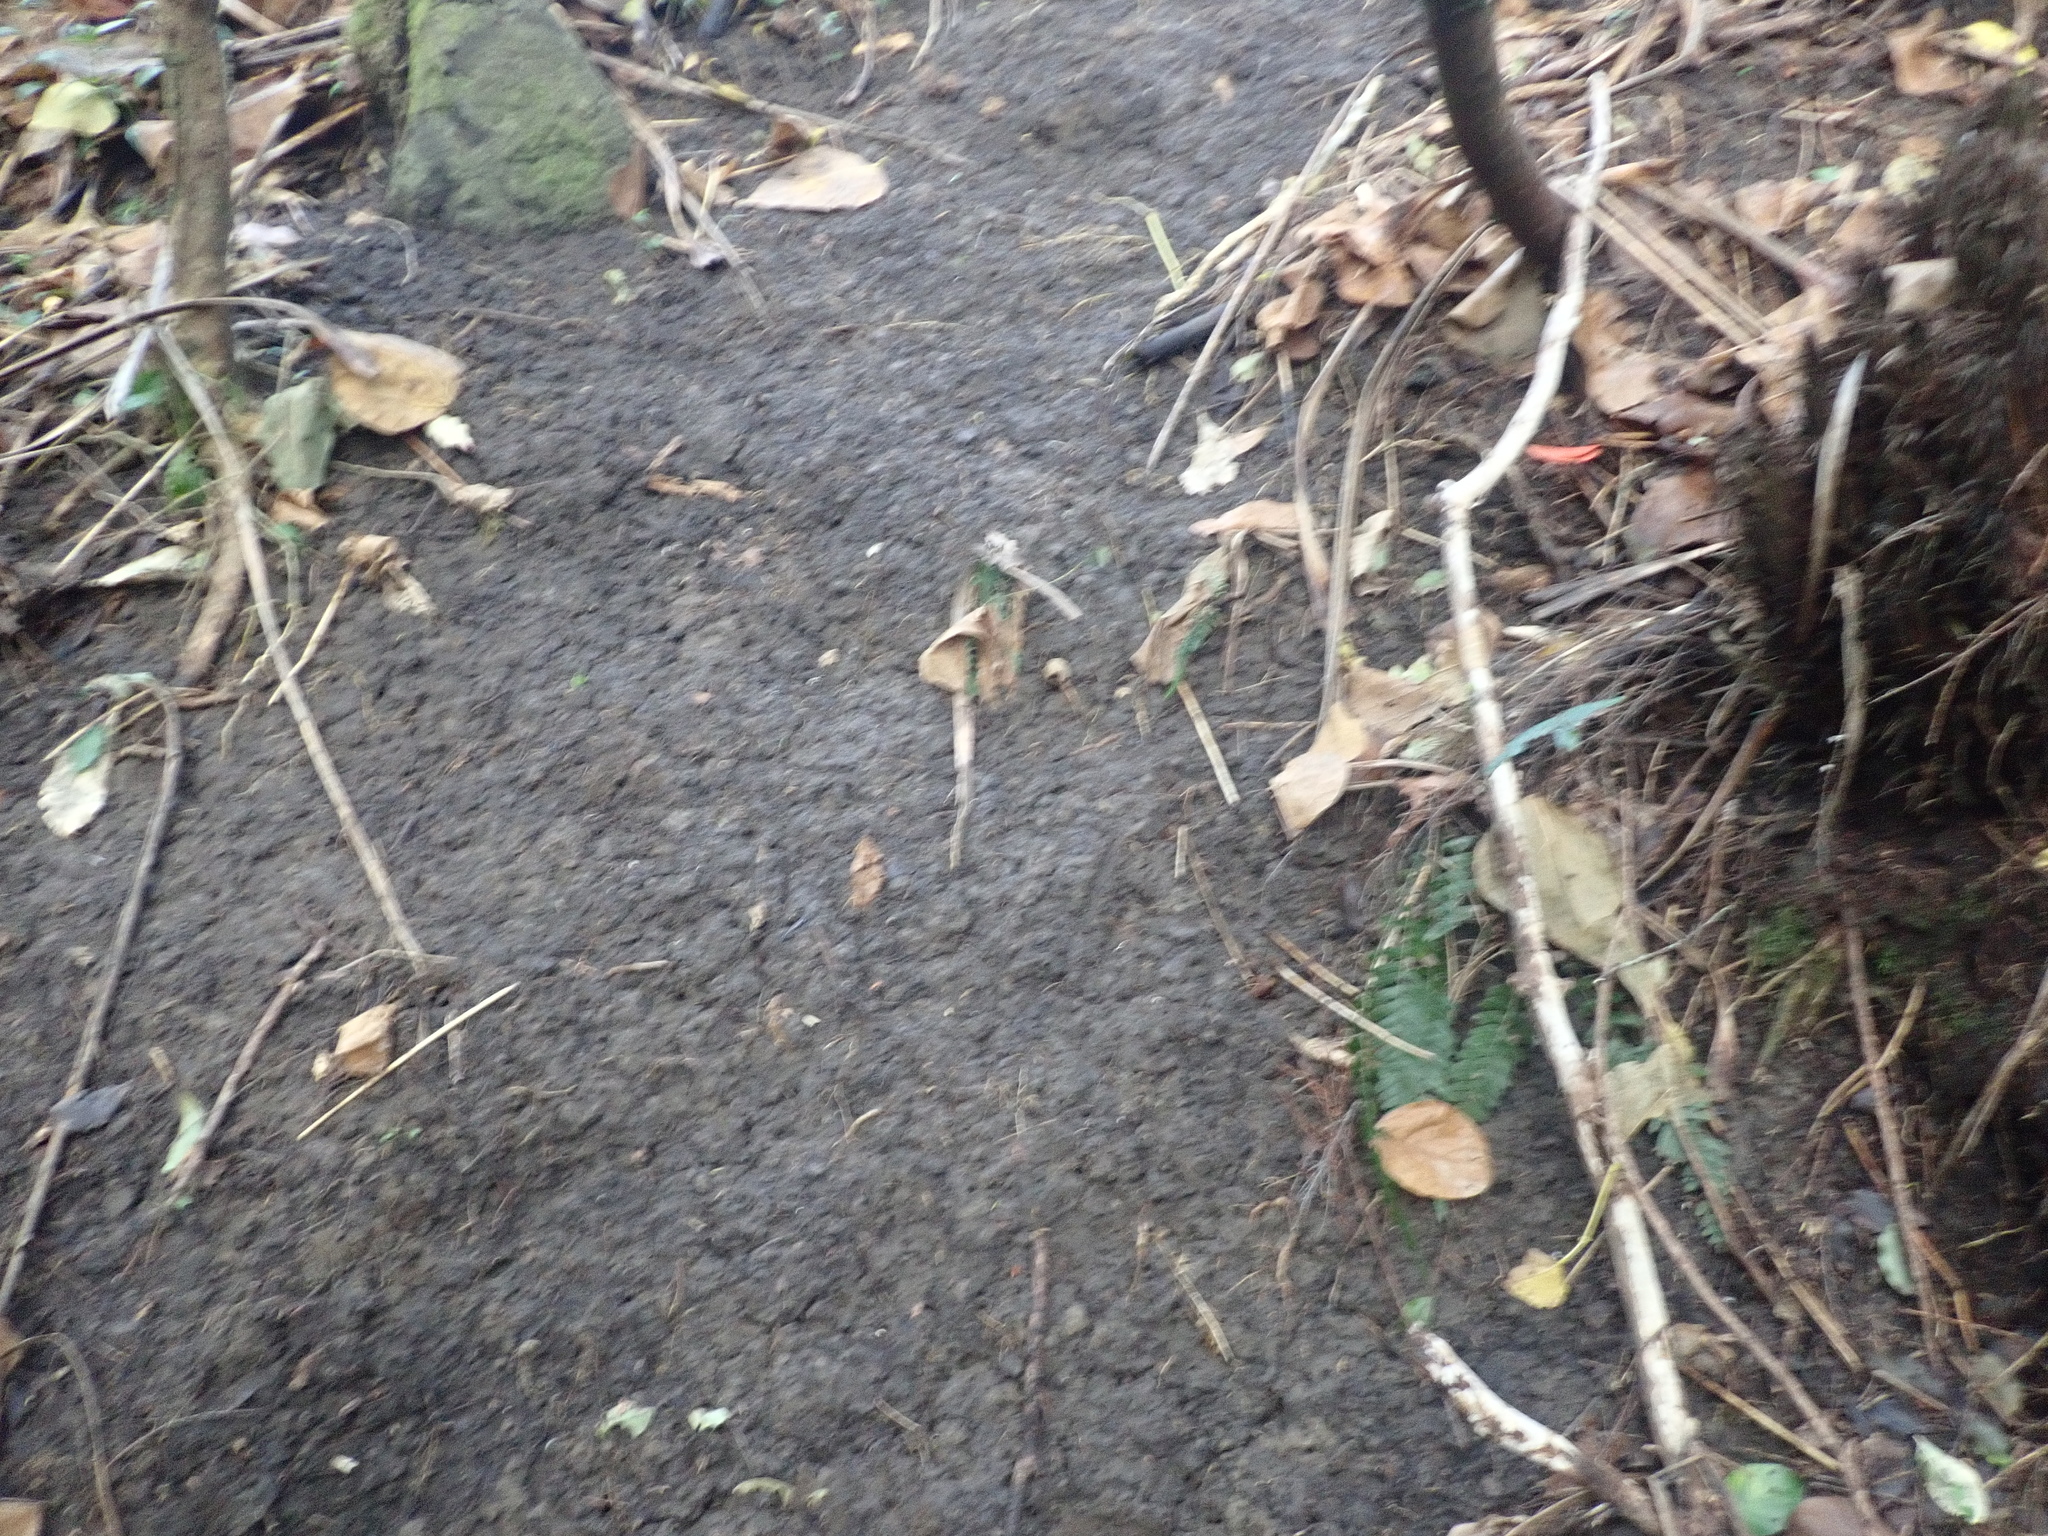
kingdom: Plantae
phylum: Tracheophyta
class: Polypodiopsida
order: Polypodiales
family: Blechnaceae
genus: Doodia
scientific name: Doodia australis
